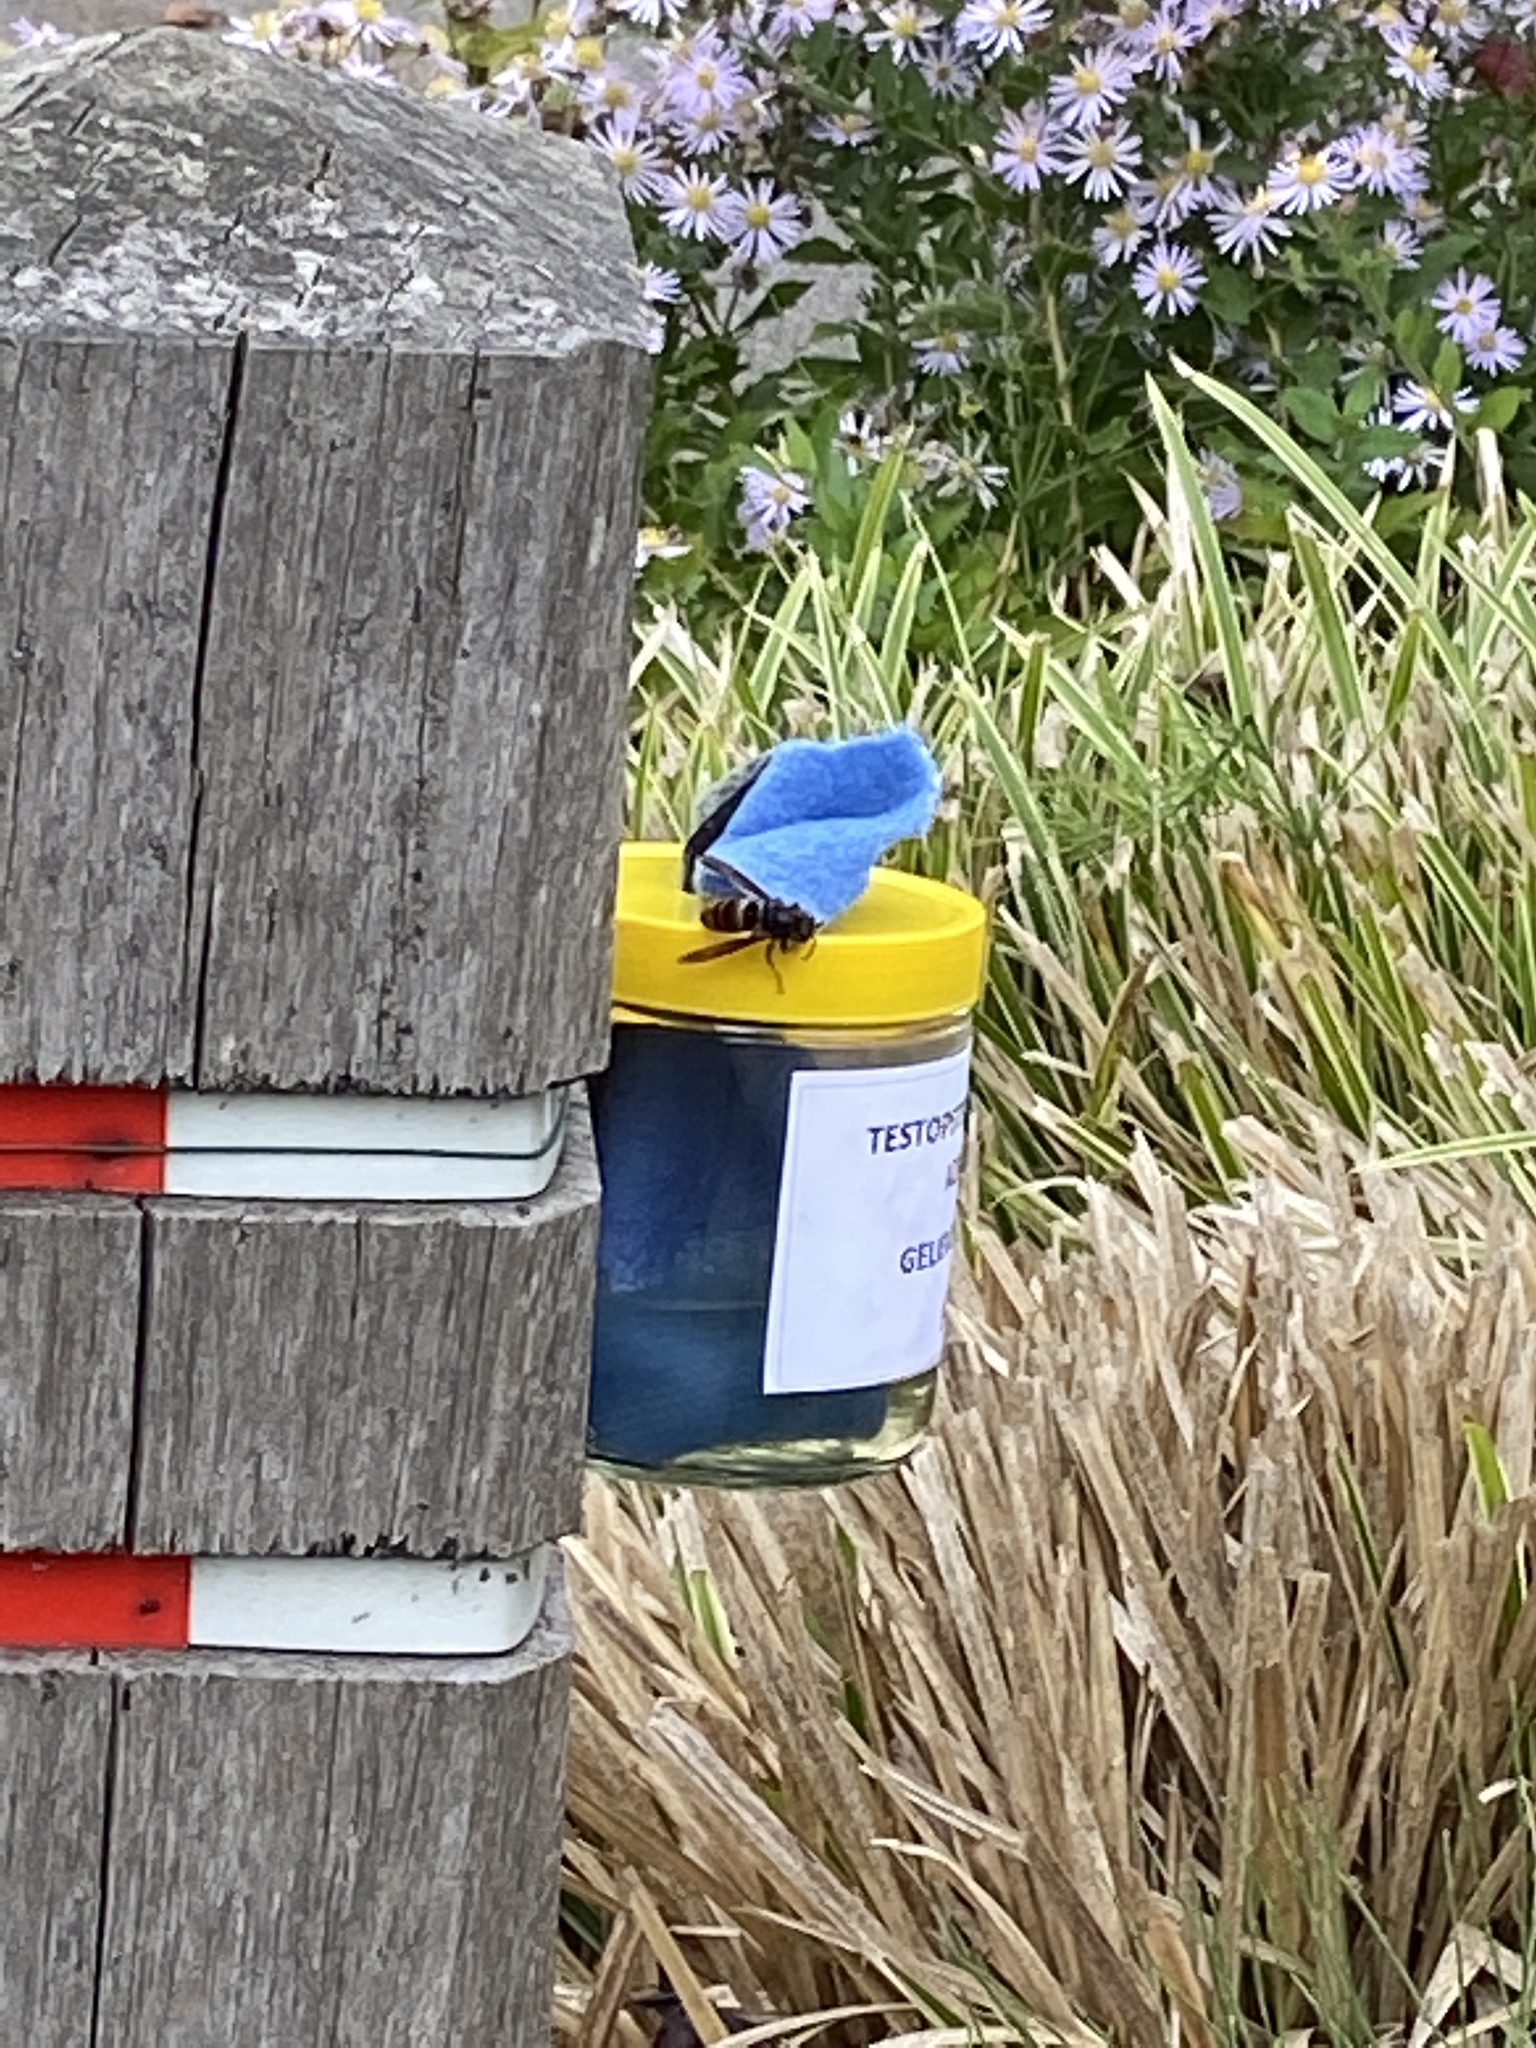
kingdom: Animalia
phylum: Arthropoda
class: Insecta
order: Hymenoptera
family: Vespidae
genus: Vespa
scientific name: Vespa velutina
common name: Asian hornet
